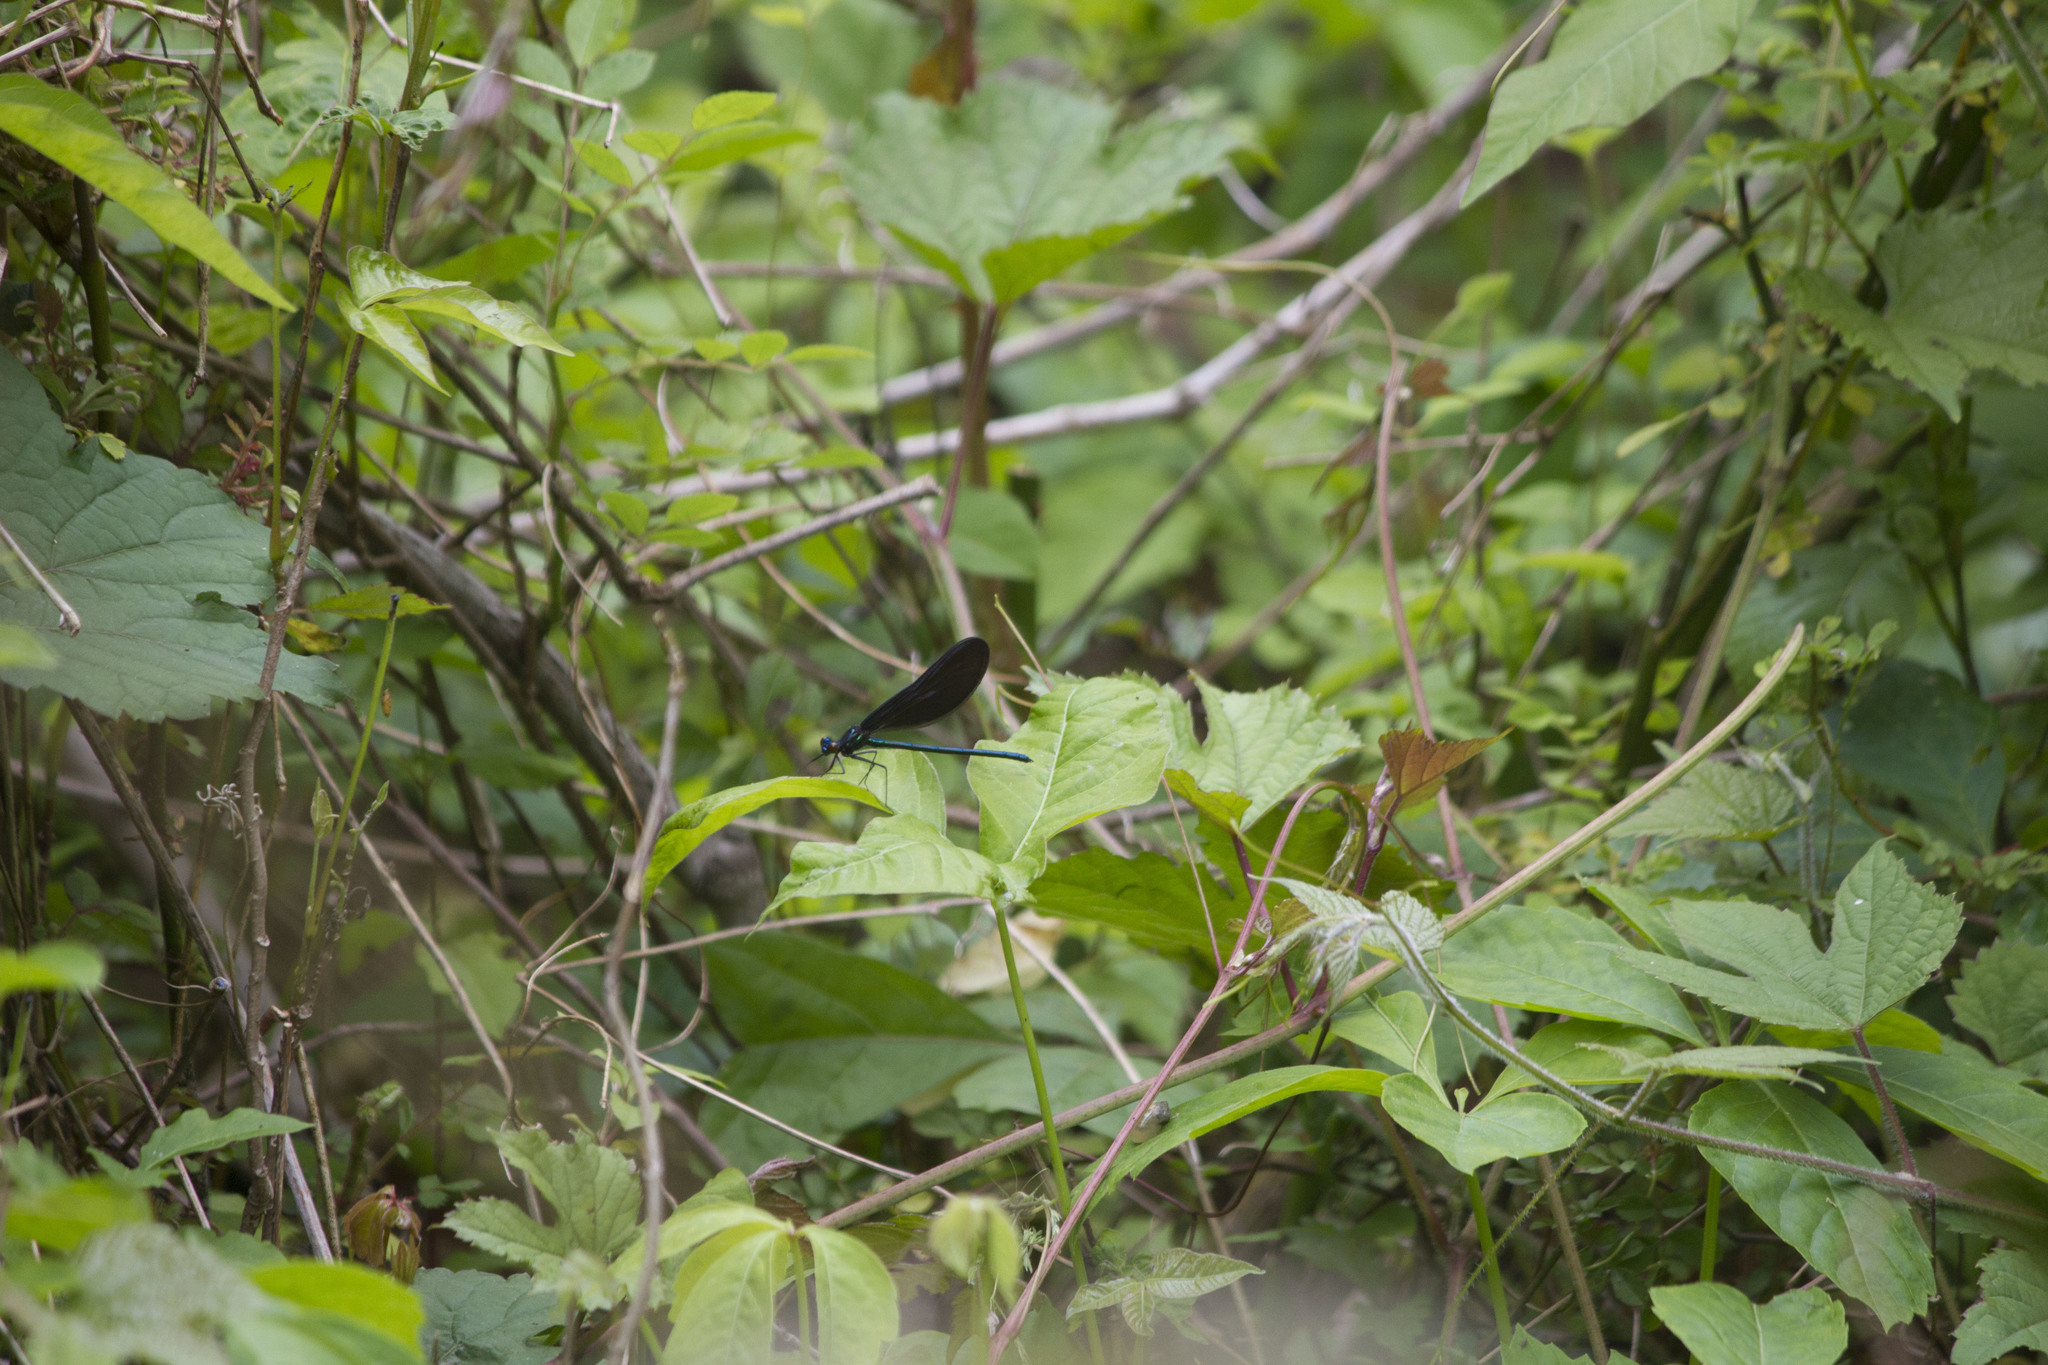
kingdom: Animalia
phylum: Arthropoda
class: Insecta
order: Odonata
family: Calopterygidae
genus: Calopteryx
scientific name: Calopteryx maculata
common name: Ebony jewelwing
